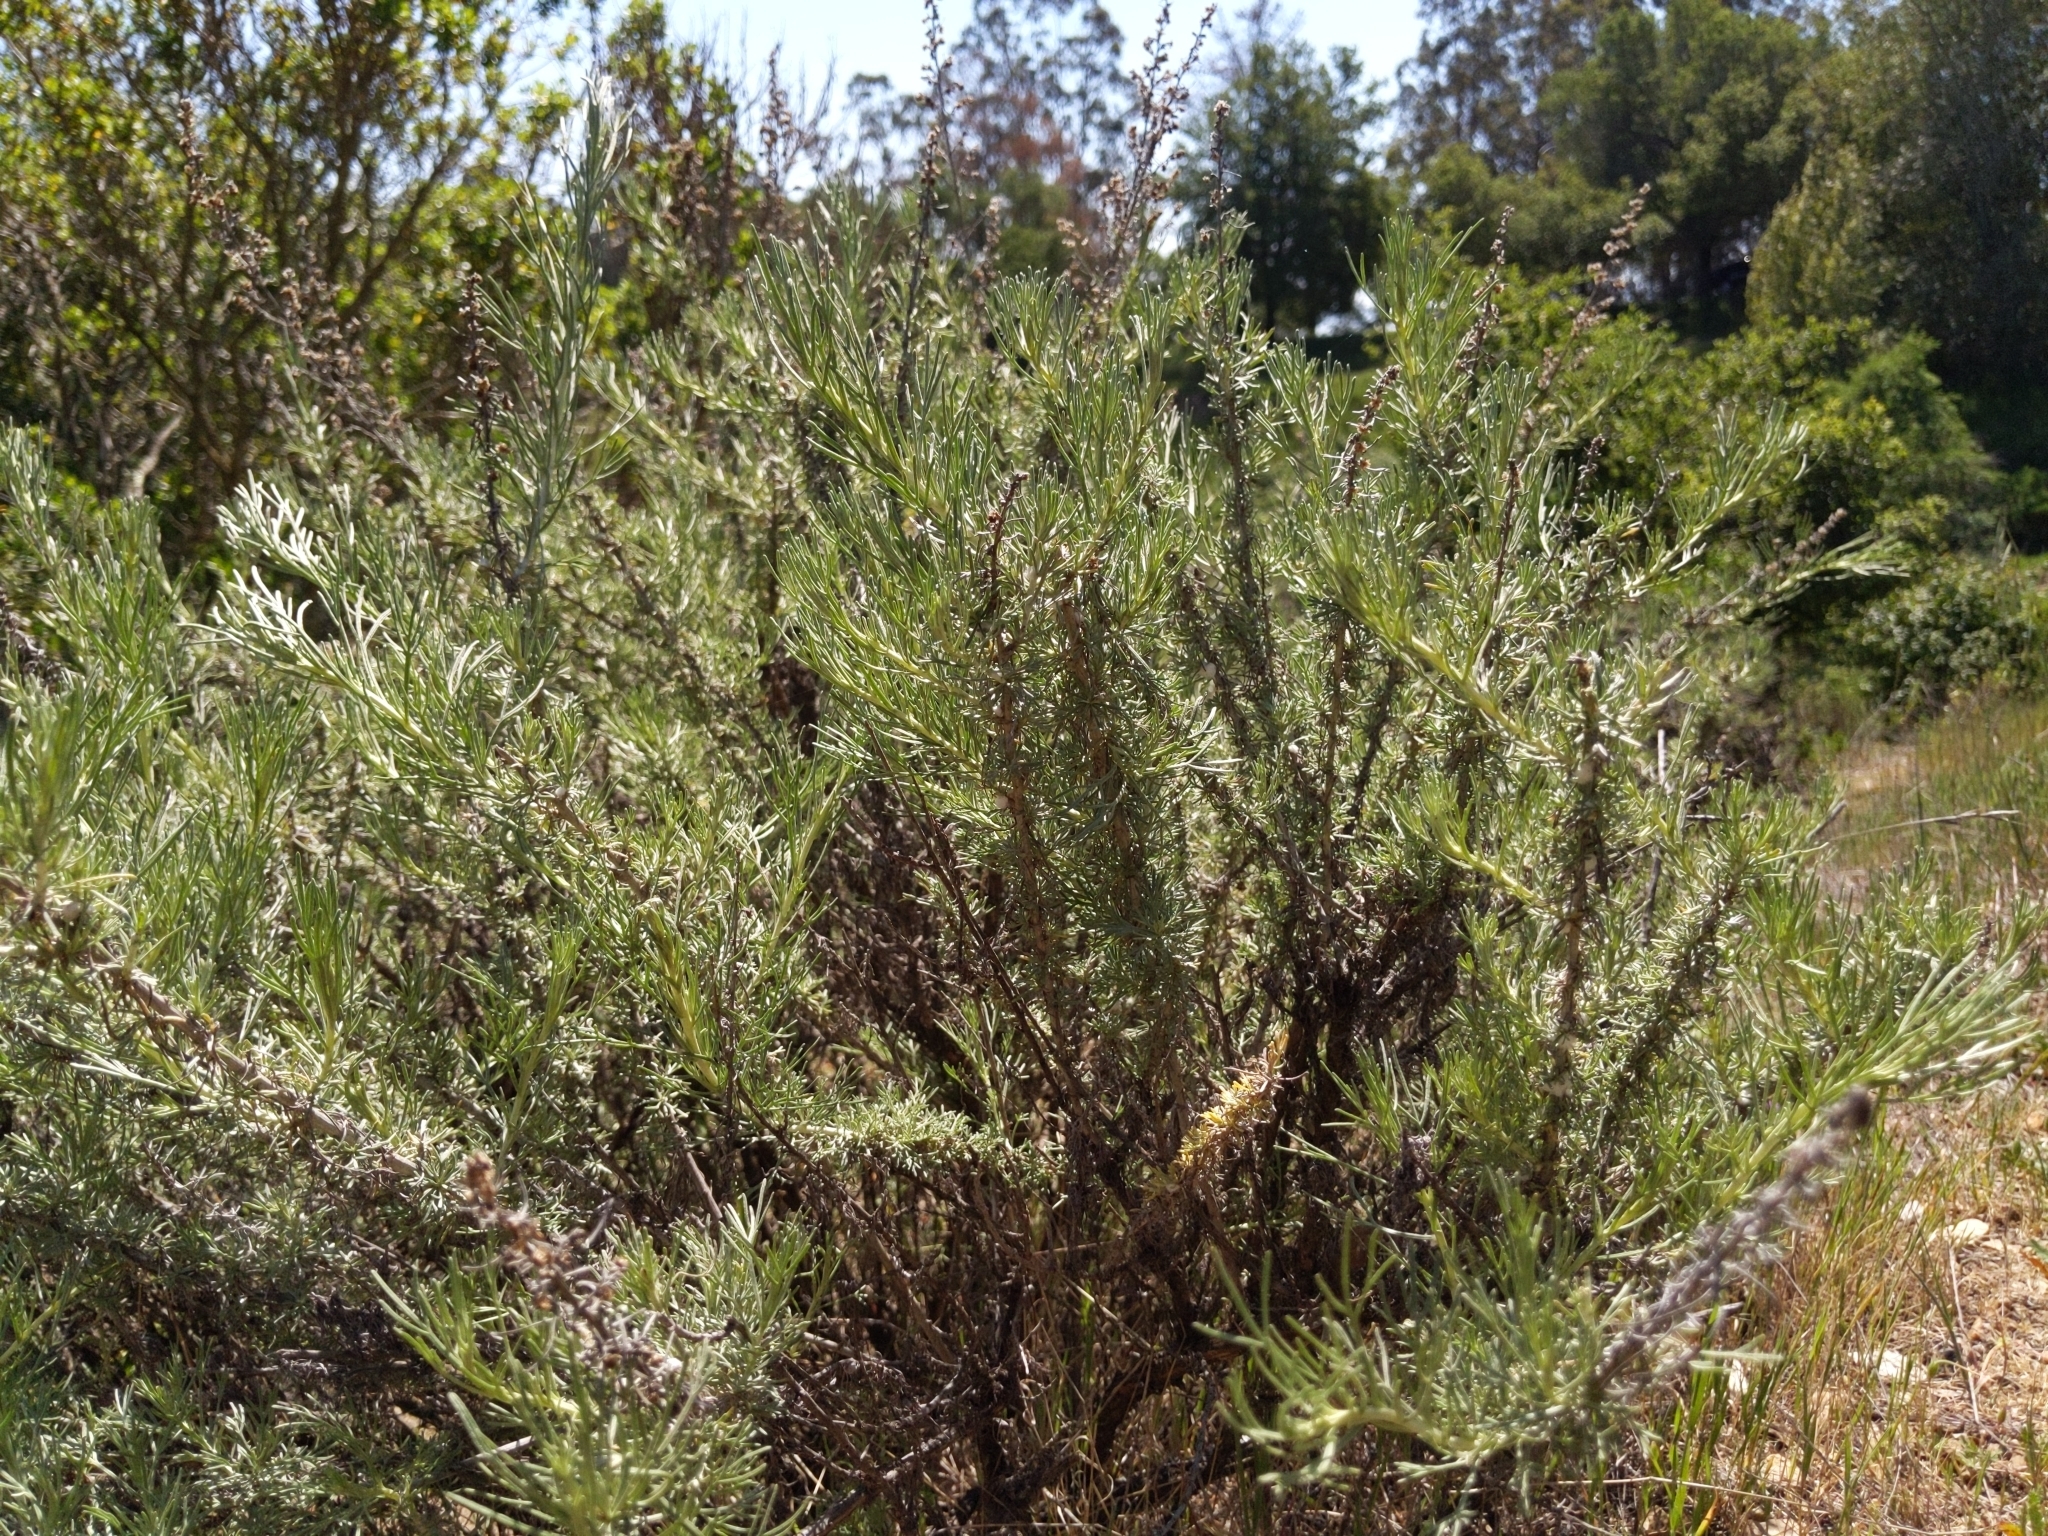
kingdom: Plantae
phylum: Tracheophyta
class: Magnoliopsida
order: Asterales
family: Asteraceae
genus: Artemisia
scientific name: Artemisia californica
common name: California sagebrush
